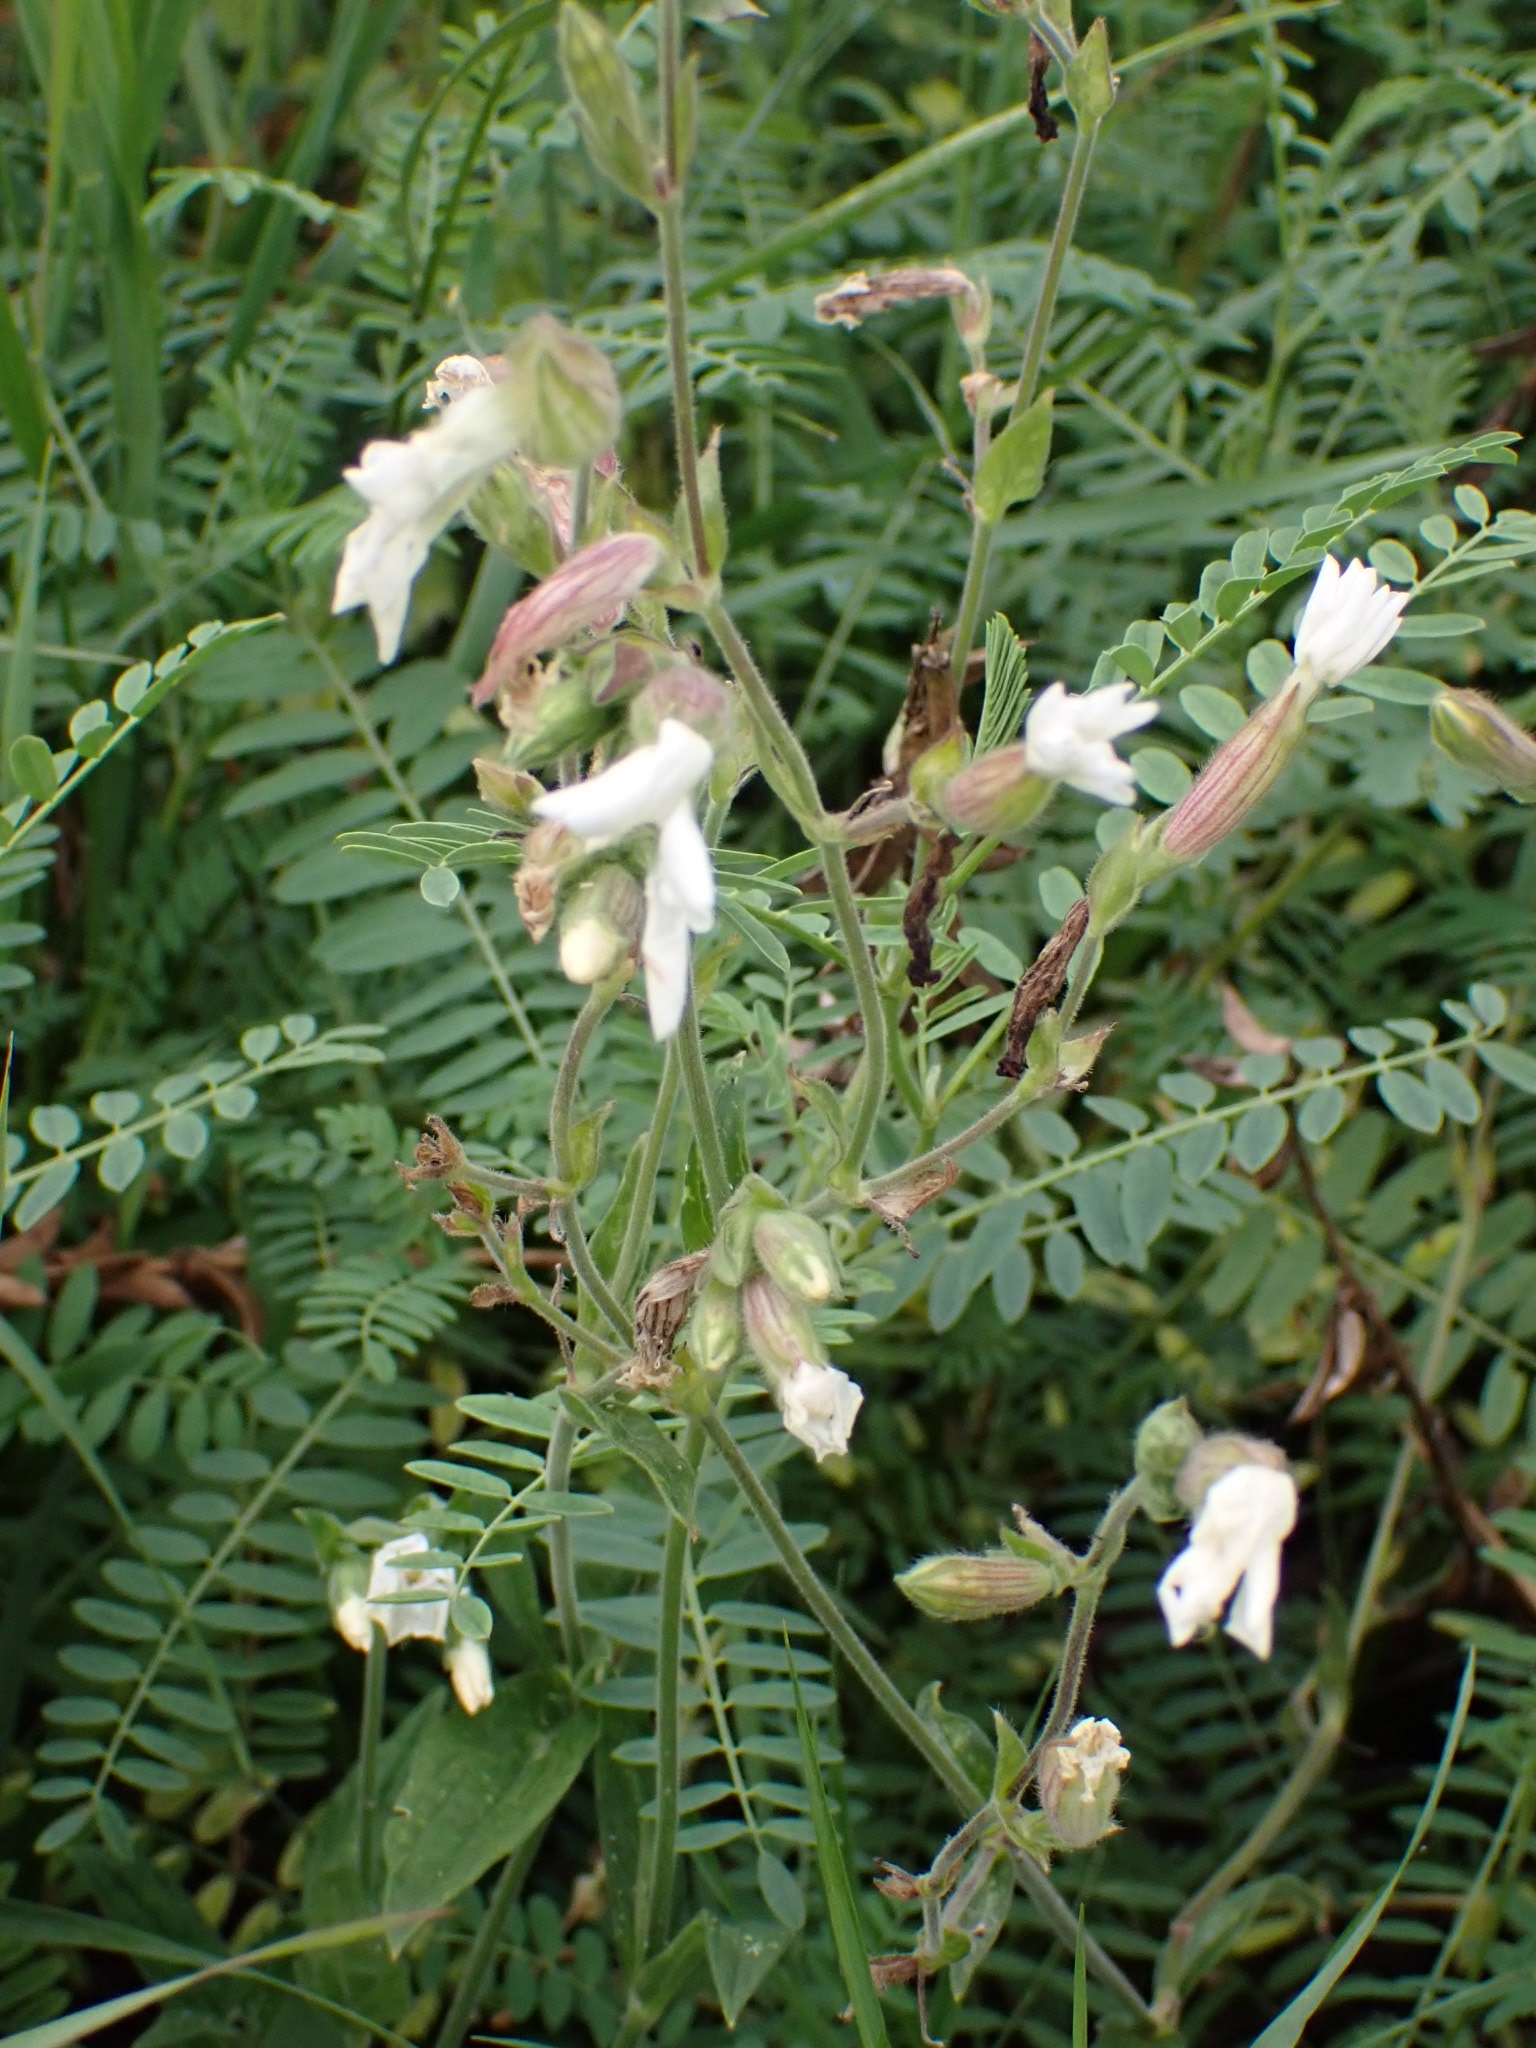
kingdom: Plantae
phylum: Tracheophyta
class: Magnoliopsida
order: Caryophyllales
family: Caryophyllaceae
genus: Silene
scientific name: Silene latifolia
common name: White campion
